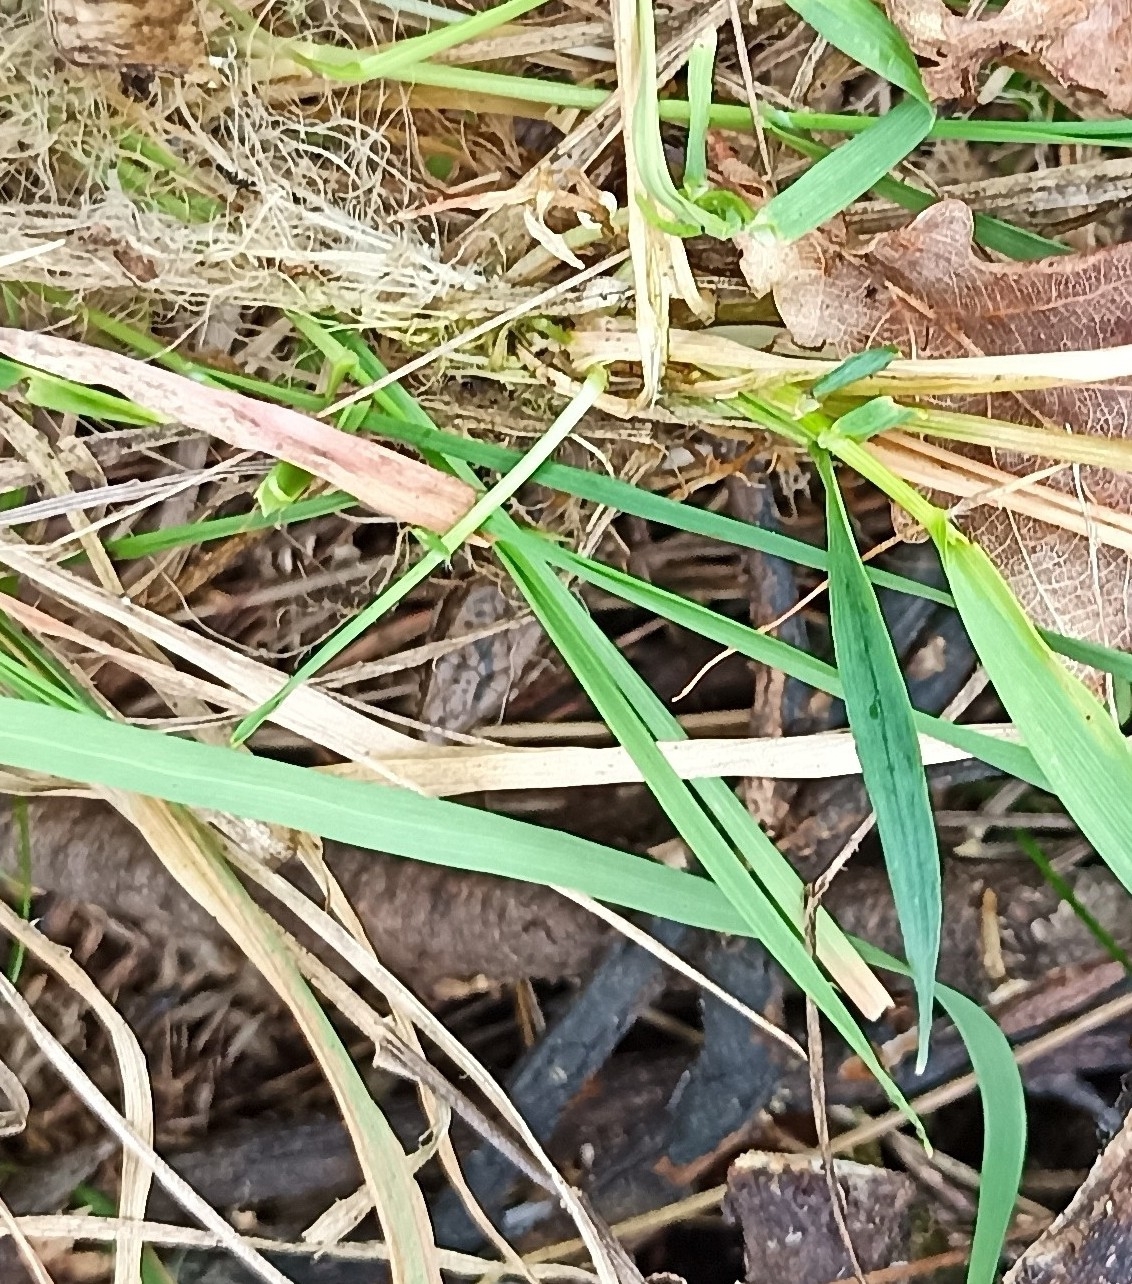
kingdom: Animalia
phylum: Chordata
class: Squamata
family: Lacertidae
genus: Podarcis
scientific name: Podarcis muralis
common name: Common wall lizard
